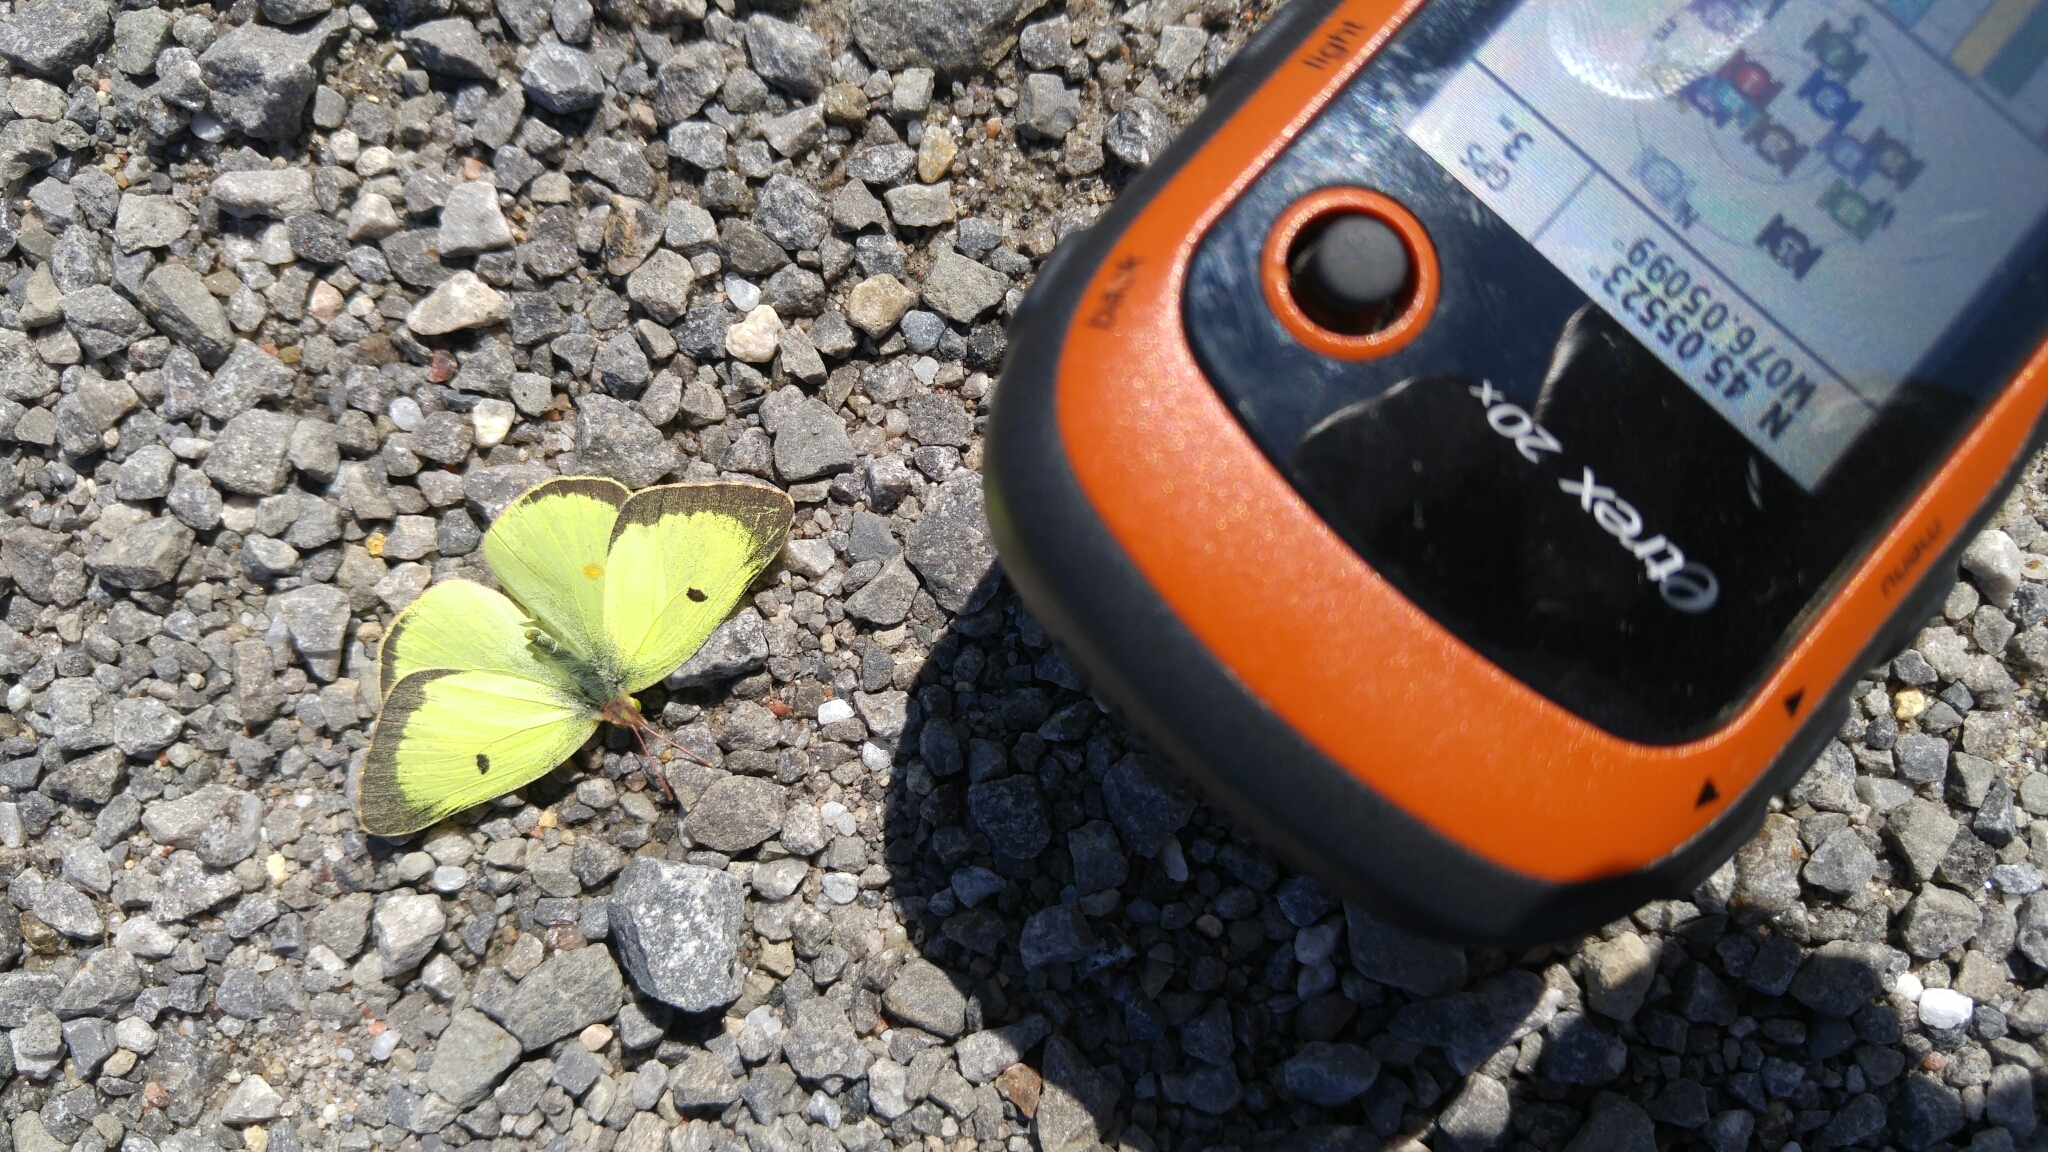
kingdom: Animalia
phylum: Arthropoda
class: Insecta
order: Lepidoptera
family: Pieridae
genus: Colias
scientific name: Colias philodice
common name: Clouded sulphur
